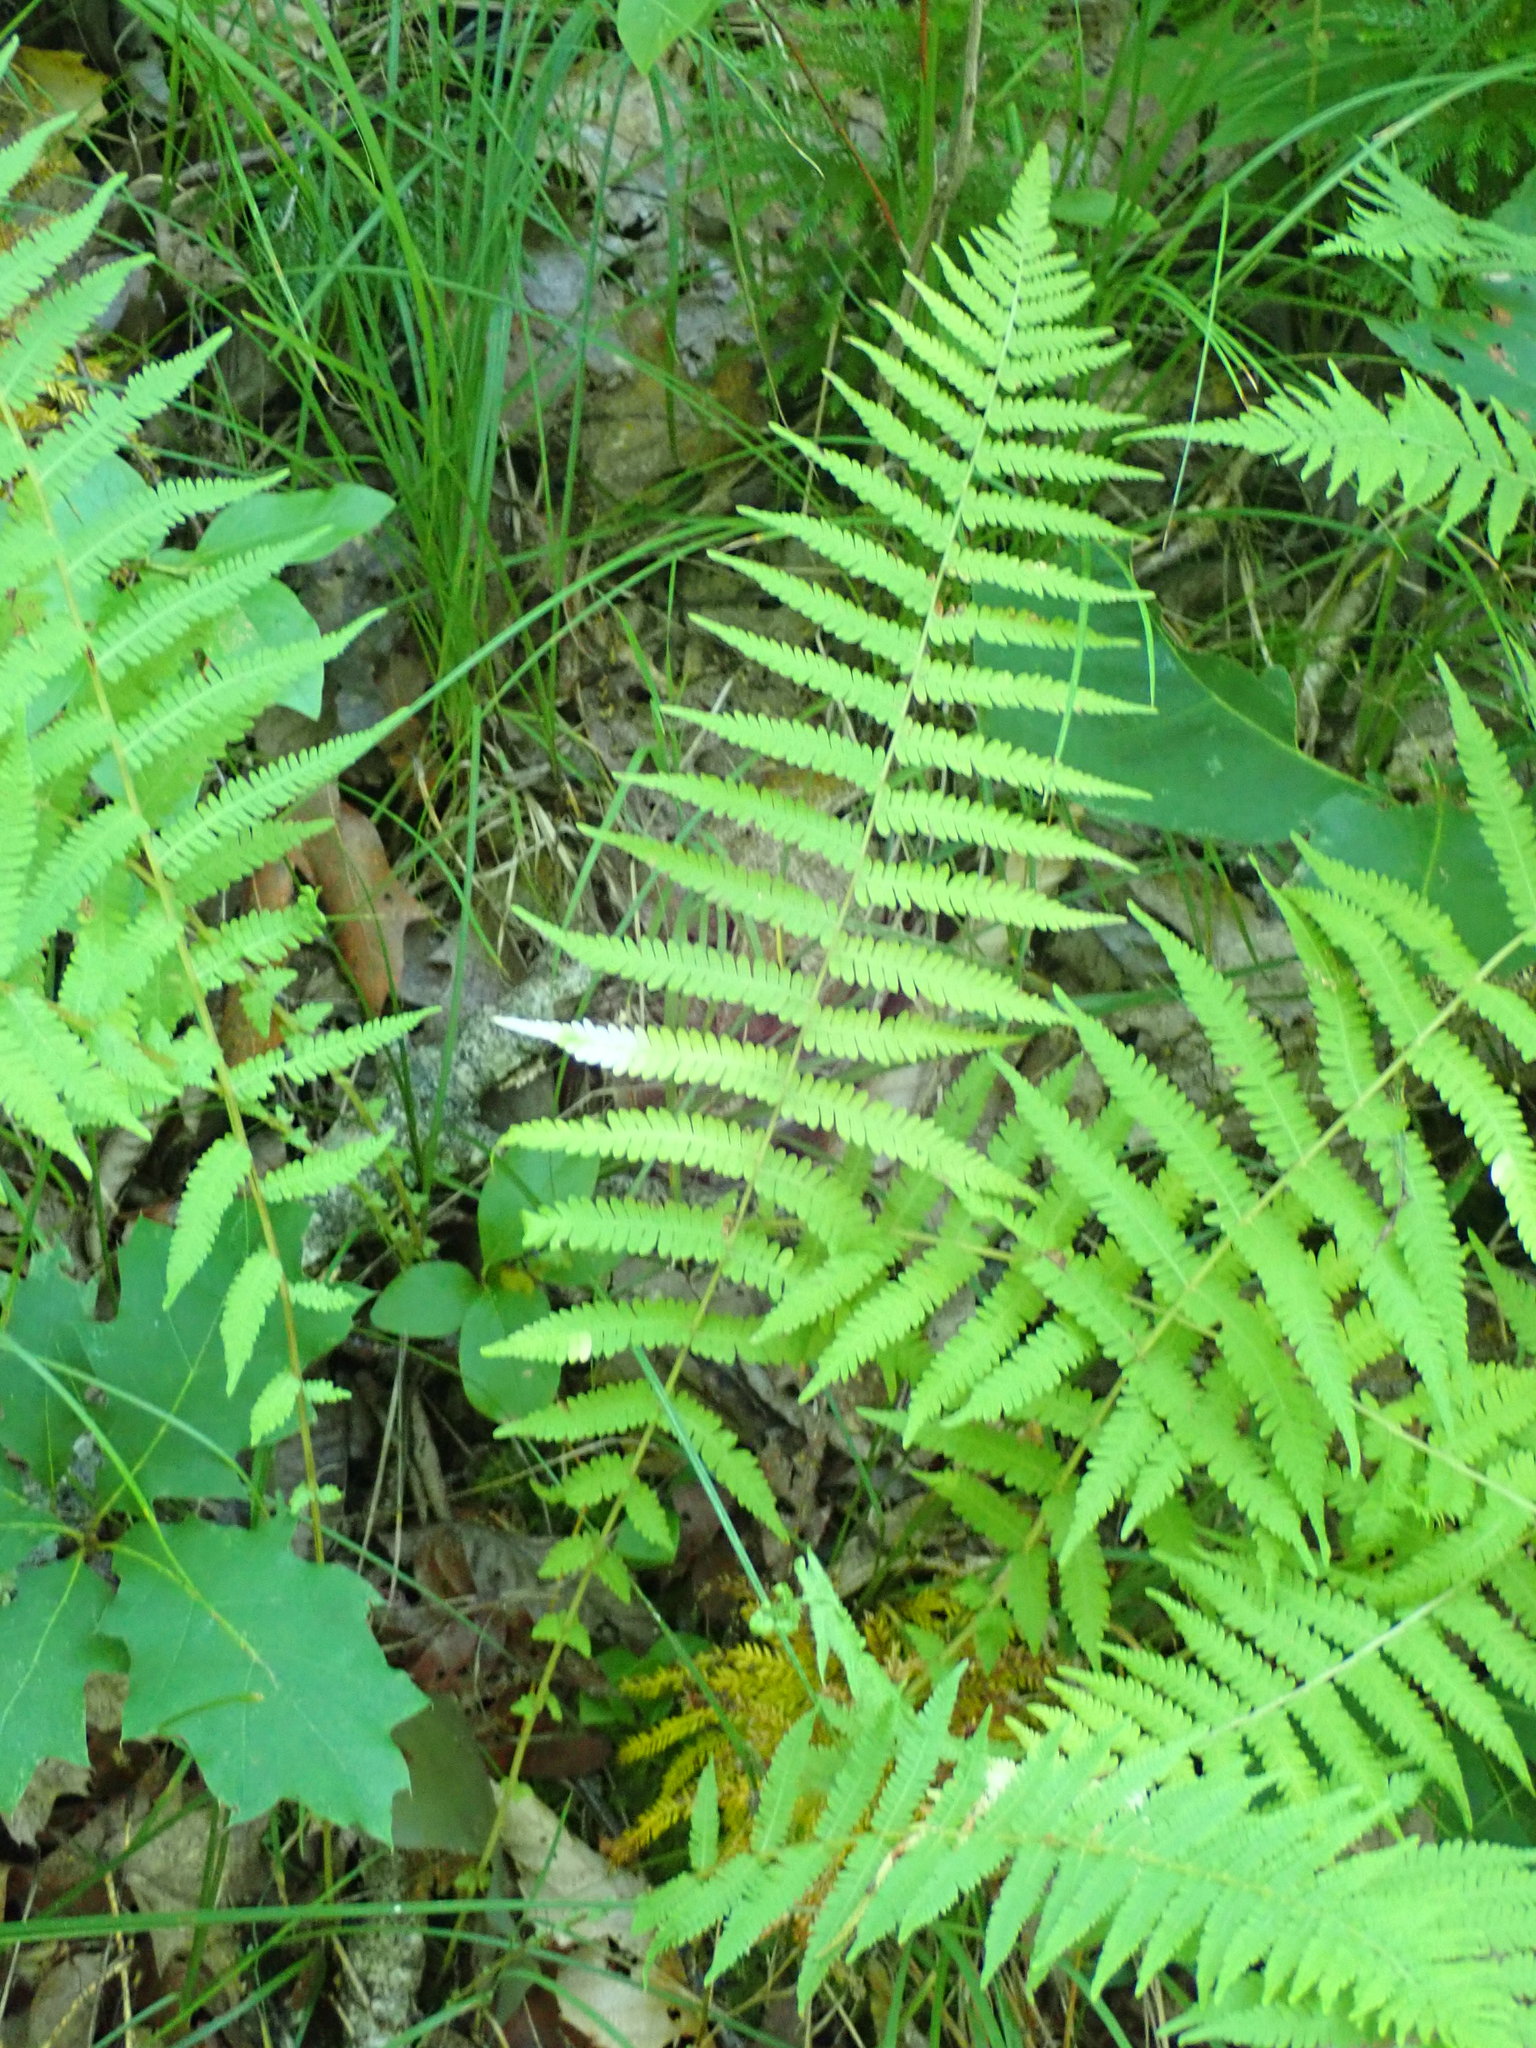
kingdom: Plantae
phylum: Tracheophyta
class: Polypodiopsida
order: Polypodiales
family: Thelypteridaceae
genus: Amauropelta
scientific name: Amauropelta noveboracensis
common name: New york fern
